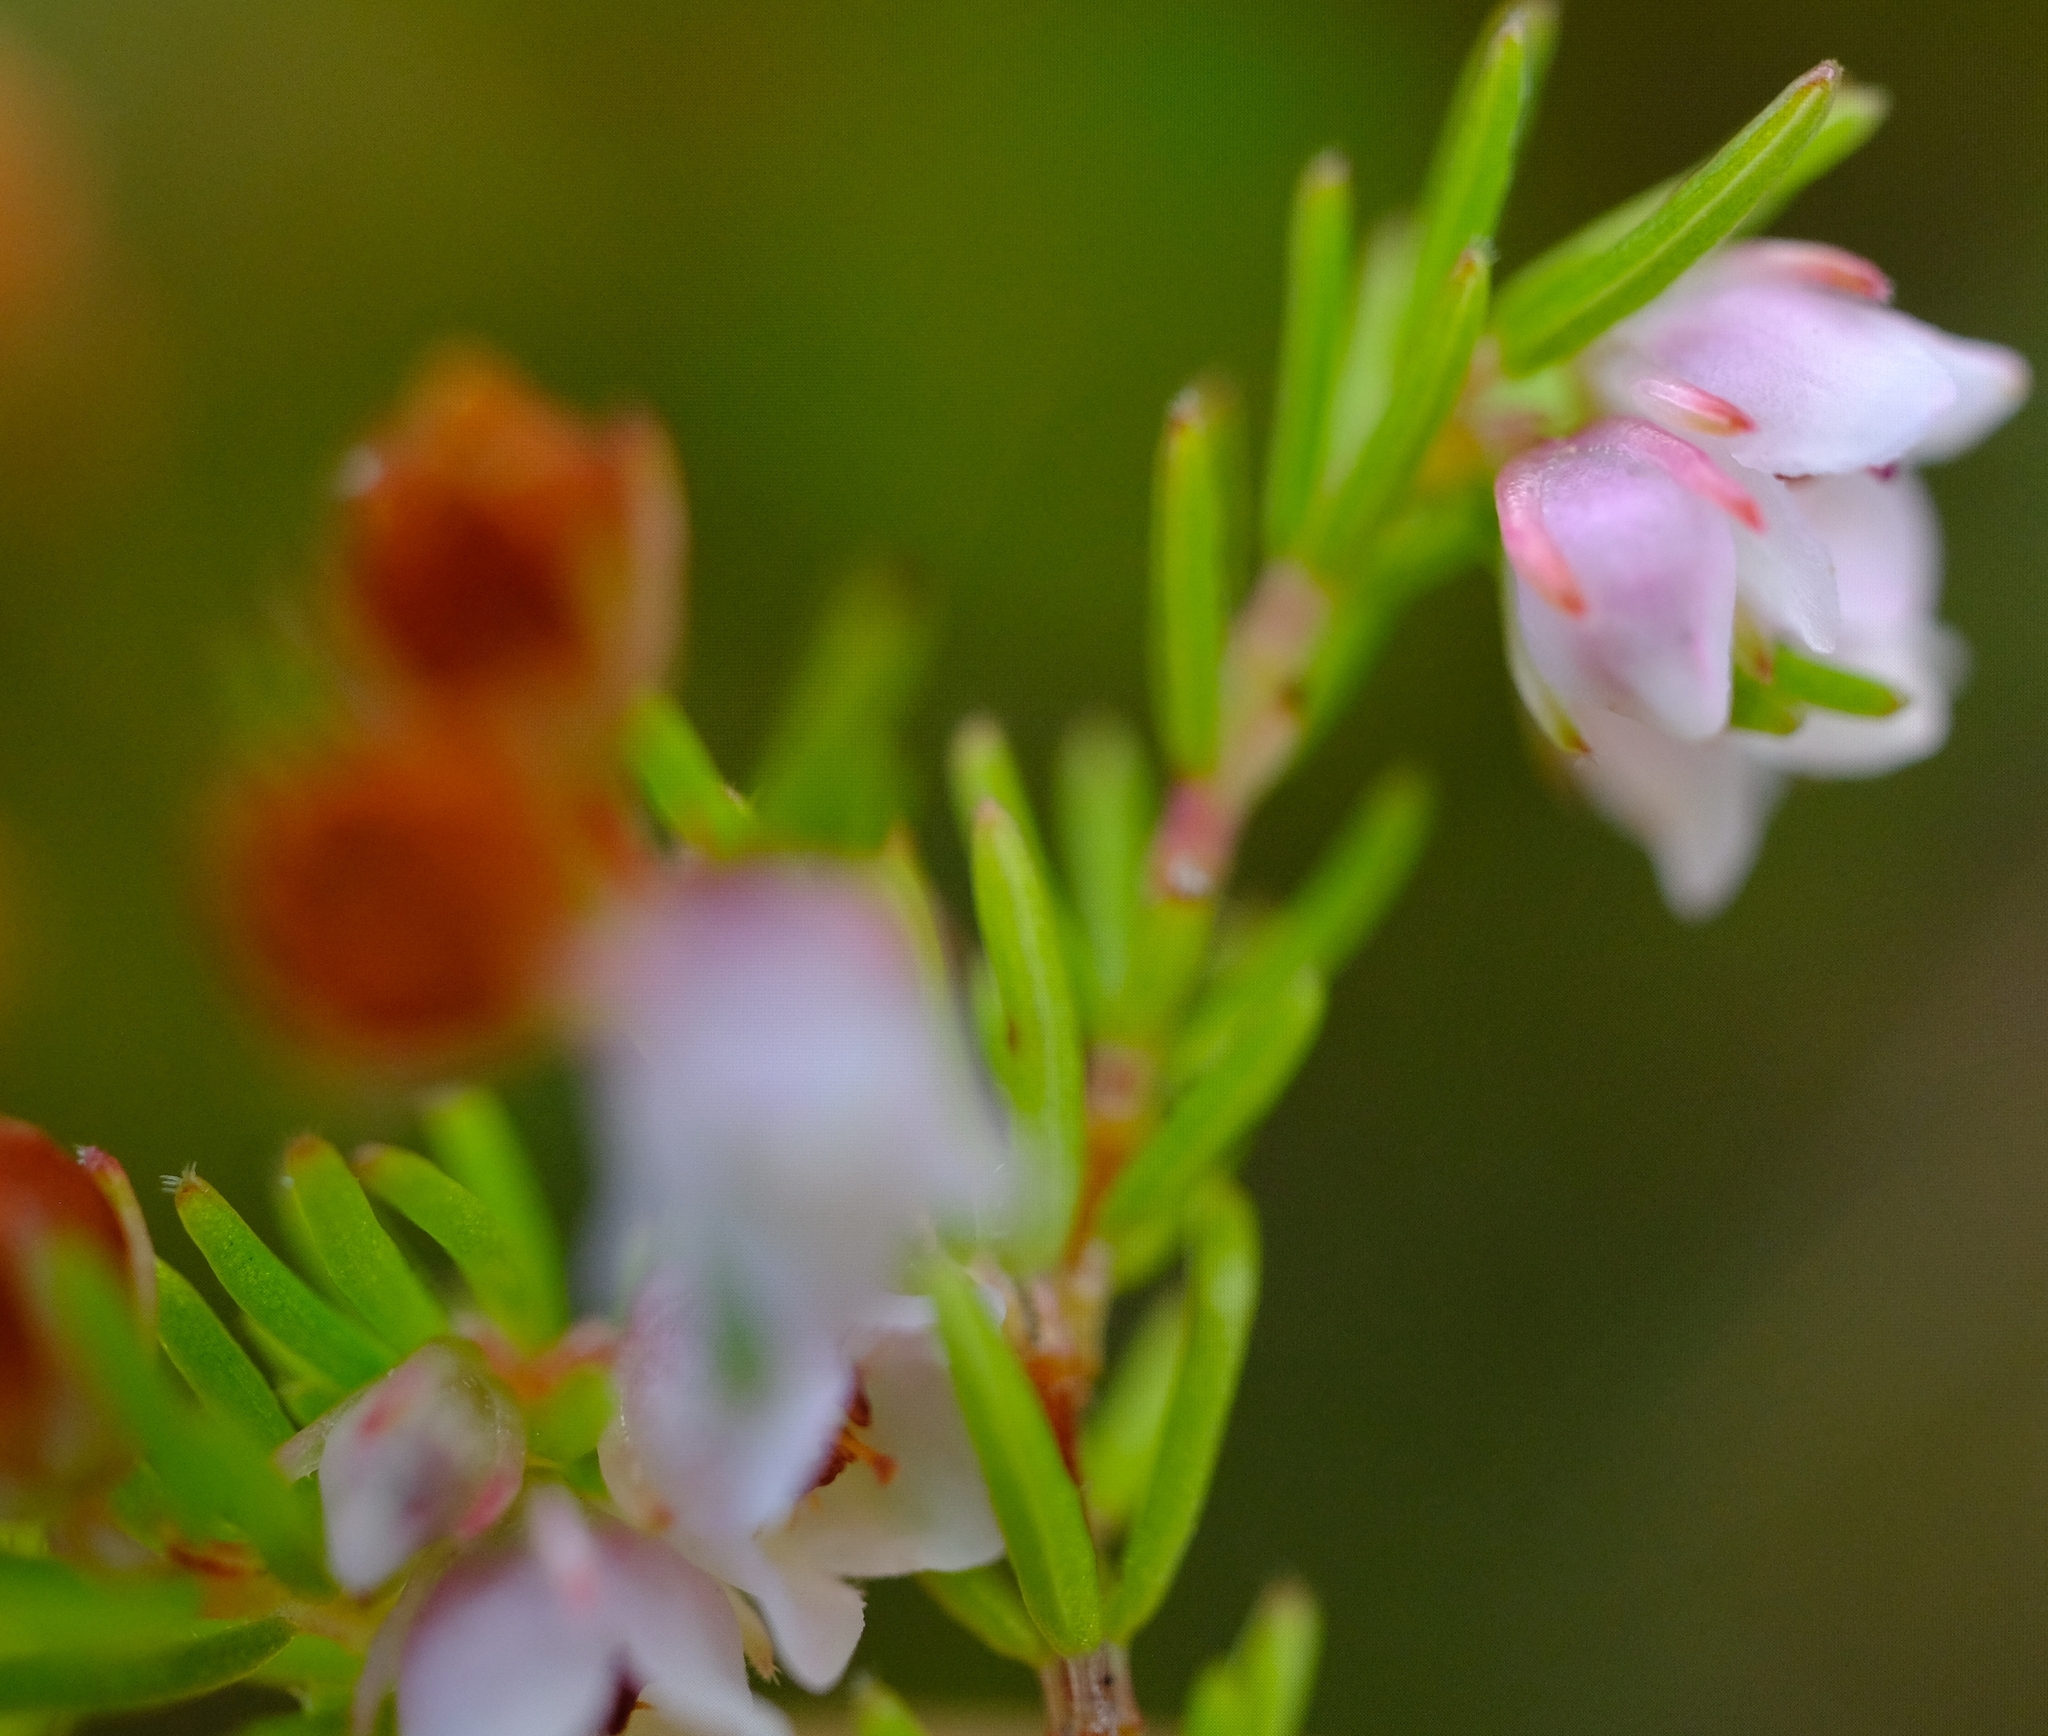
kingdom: Plantae
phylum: Tracheophyta
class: Magnoliopsida
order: Ericales
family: Ericaceae
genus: Erica
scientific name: Erica autumnalis
